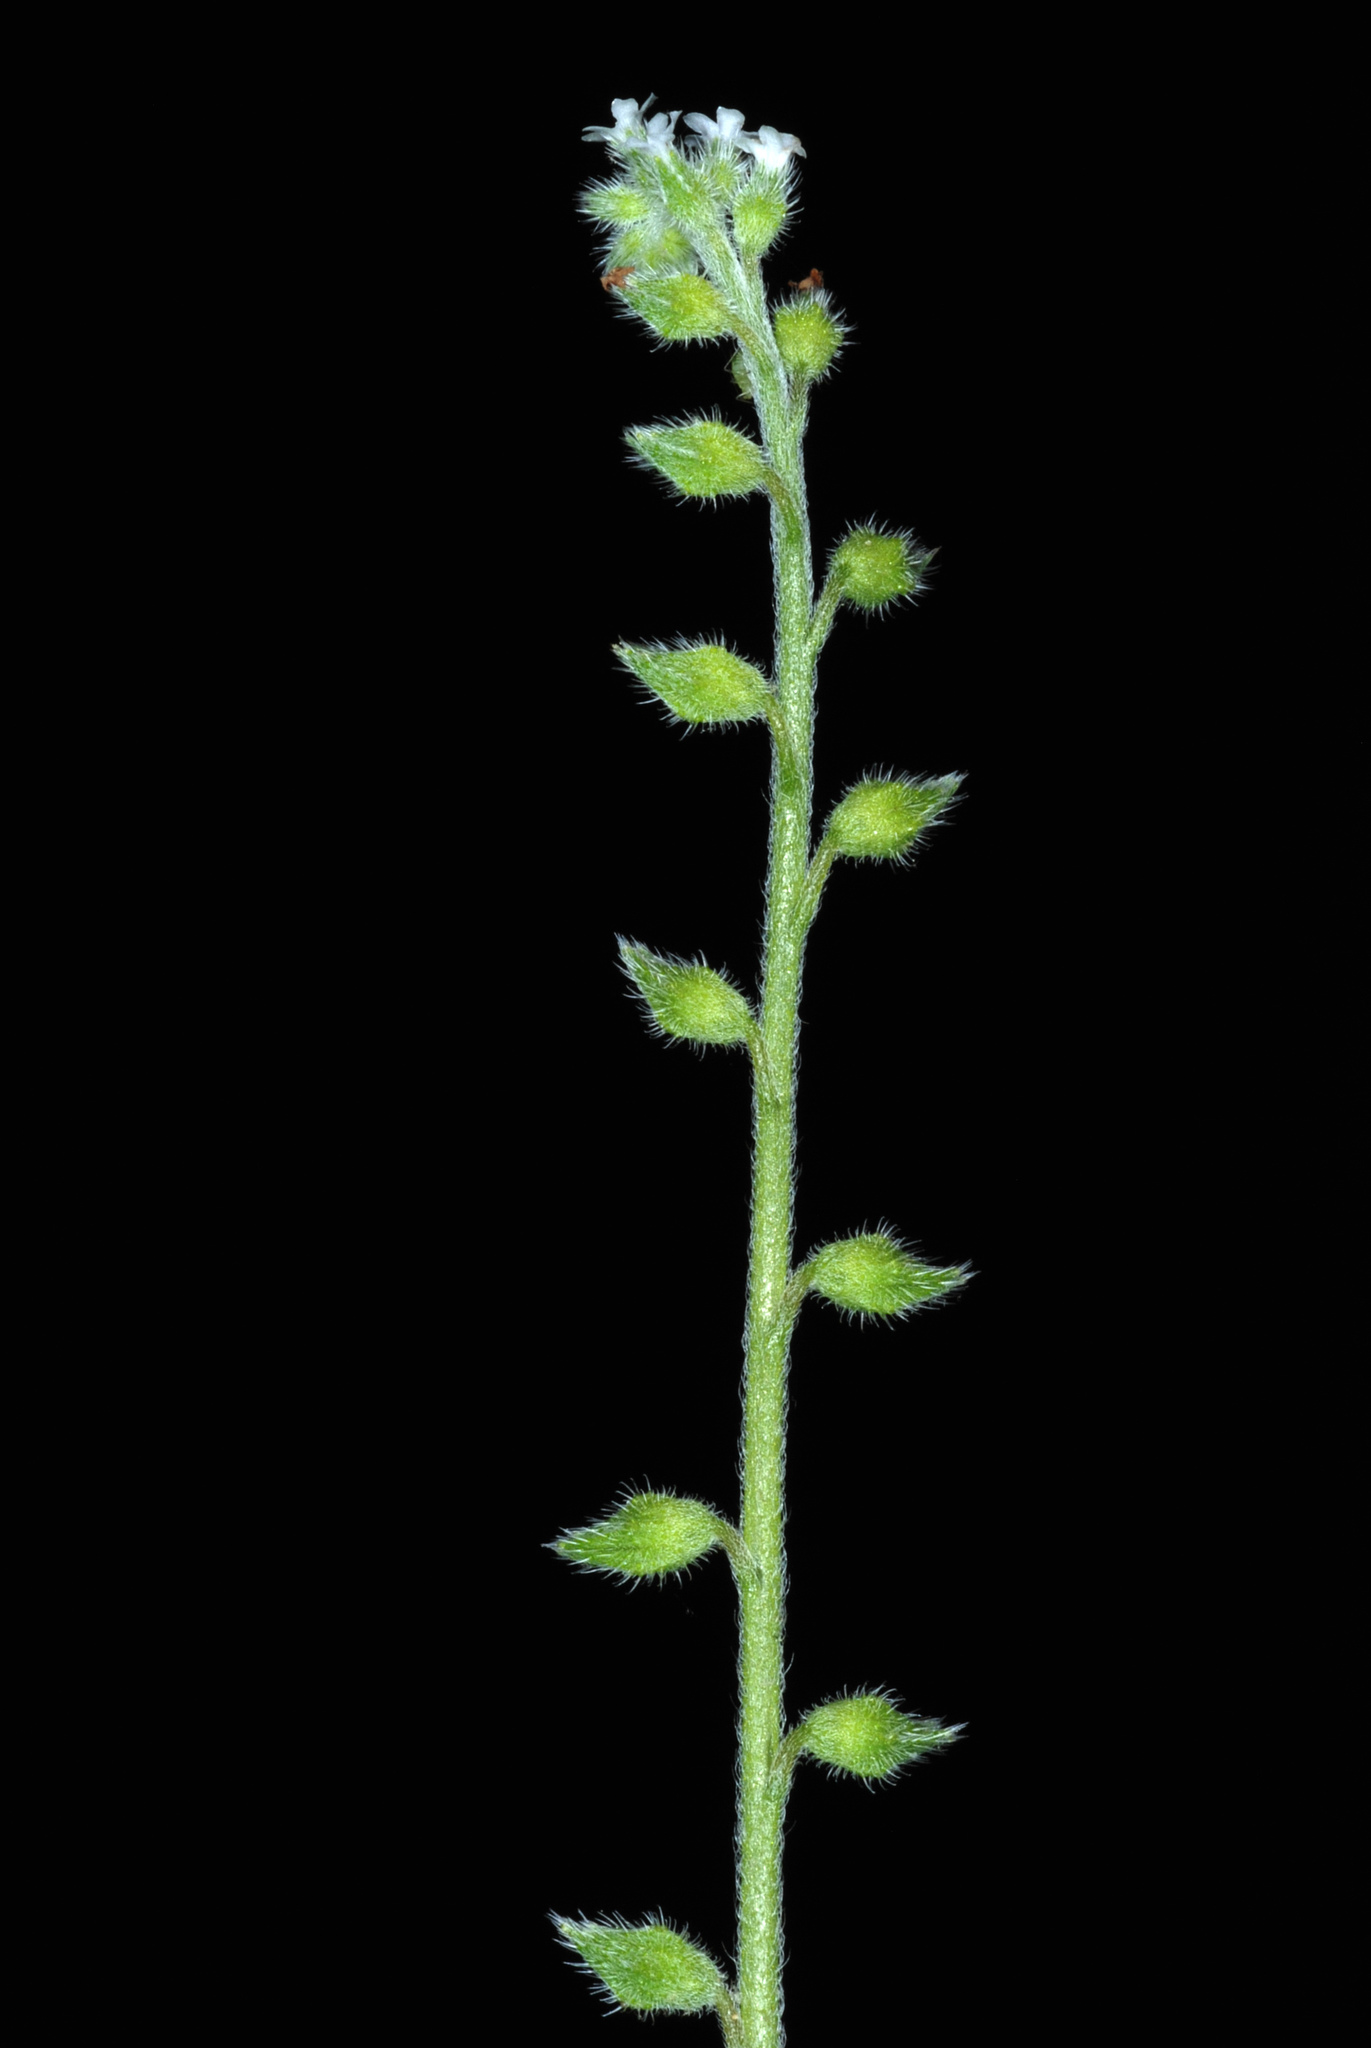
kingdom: Plantae
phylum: Tracheophyta
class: Magnoliopsida
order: Boraginales
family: Boraginaceae
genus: Myosotis
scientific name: Myosotis verna
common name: Early forget-me-not
